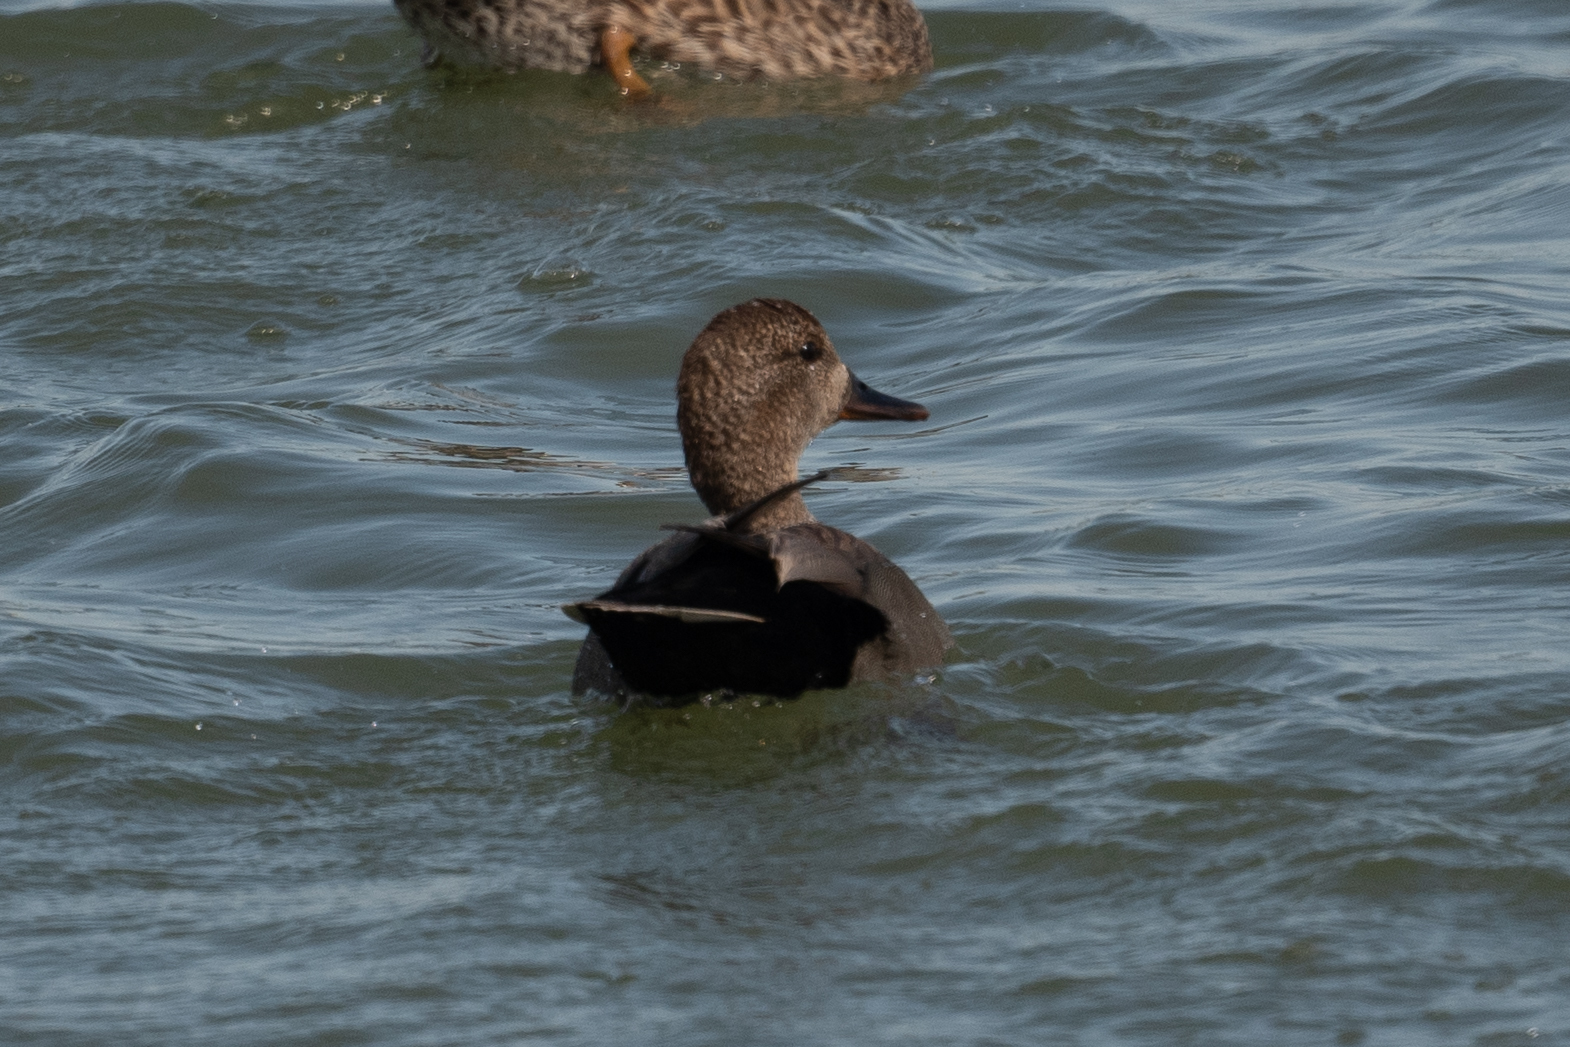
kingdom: Animalia
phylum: Chordata
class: Aves
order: Anseriformes
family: Anatidae
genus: Mareca
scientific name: Mareca strepera
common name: Gadwall
